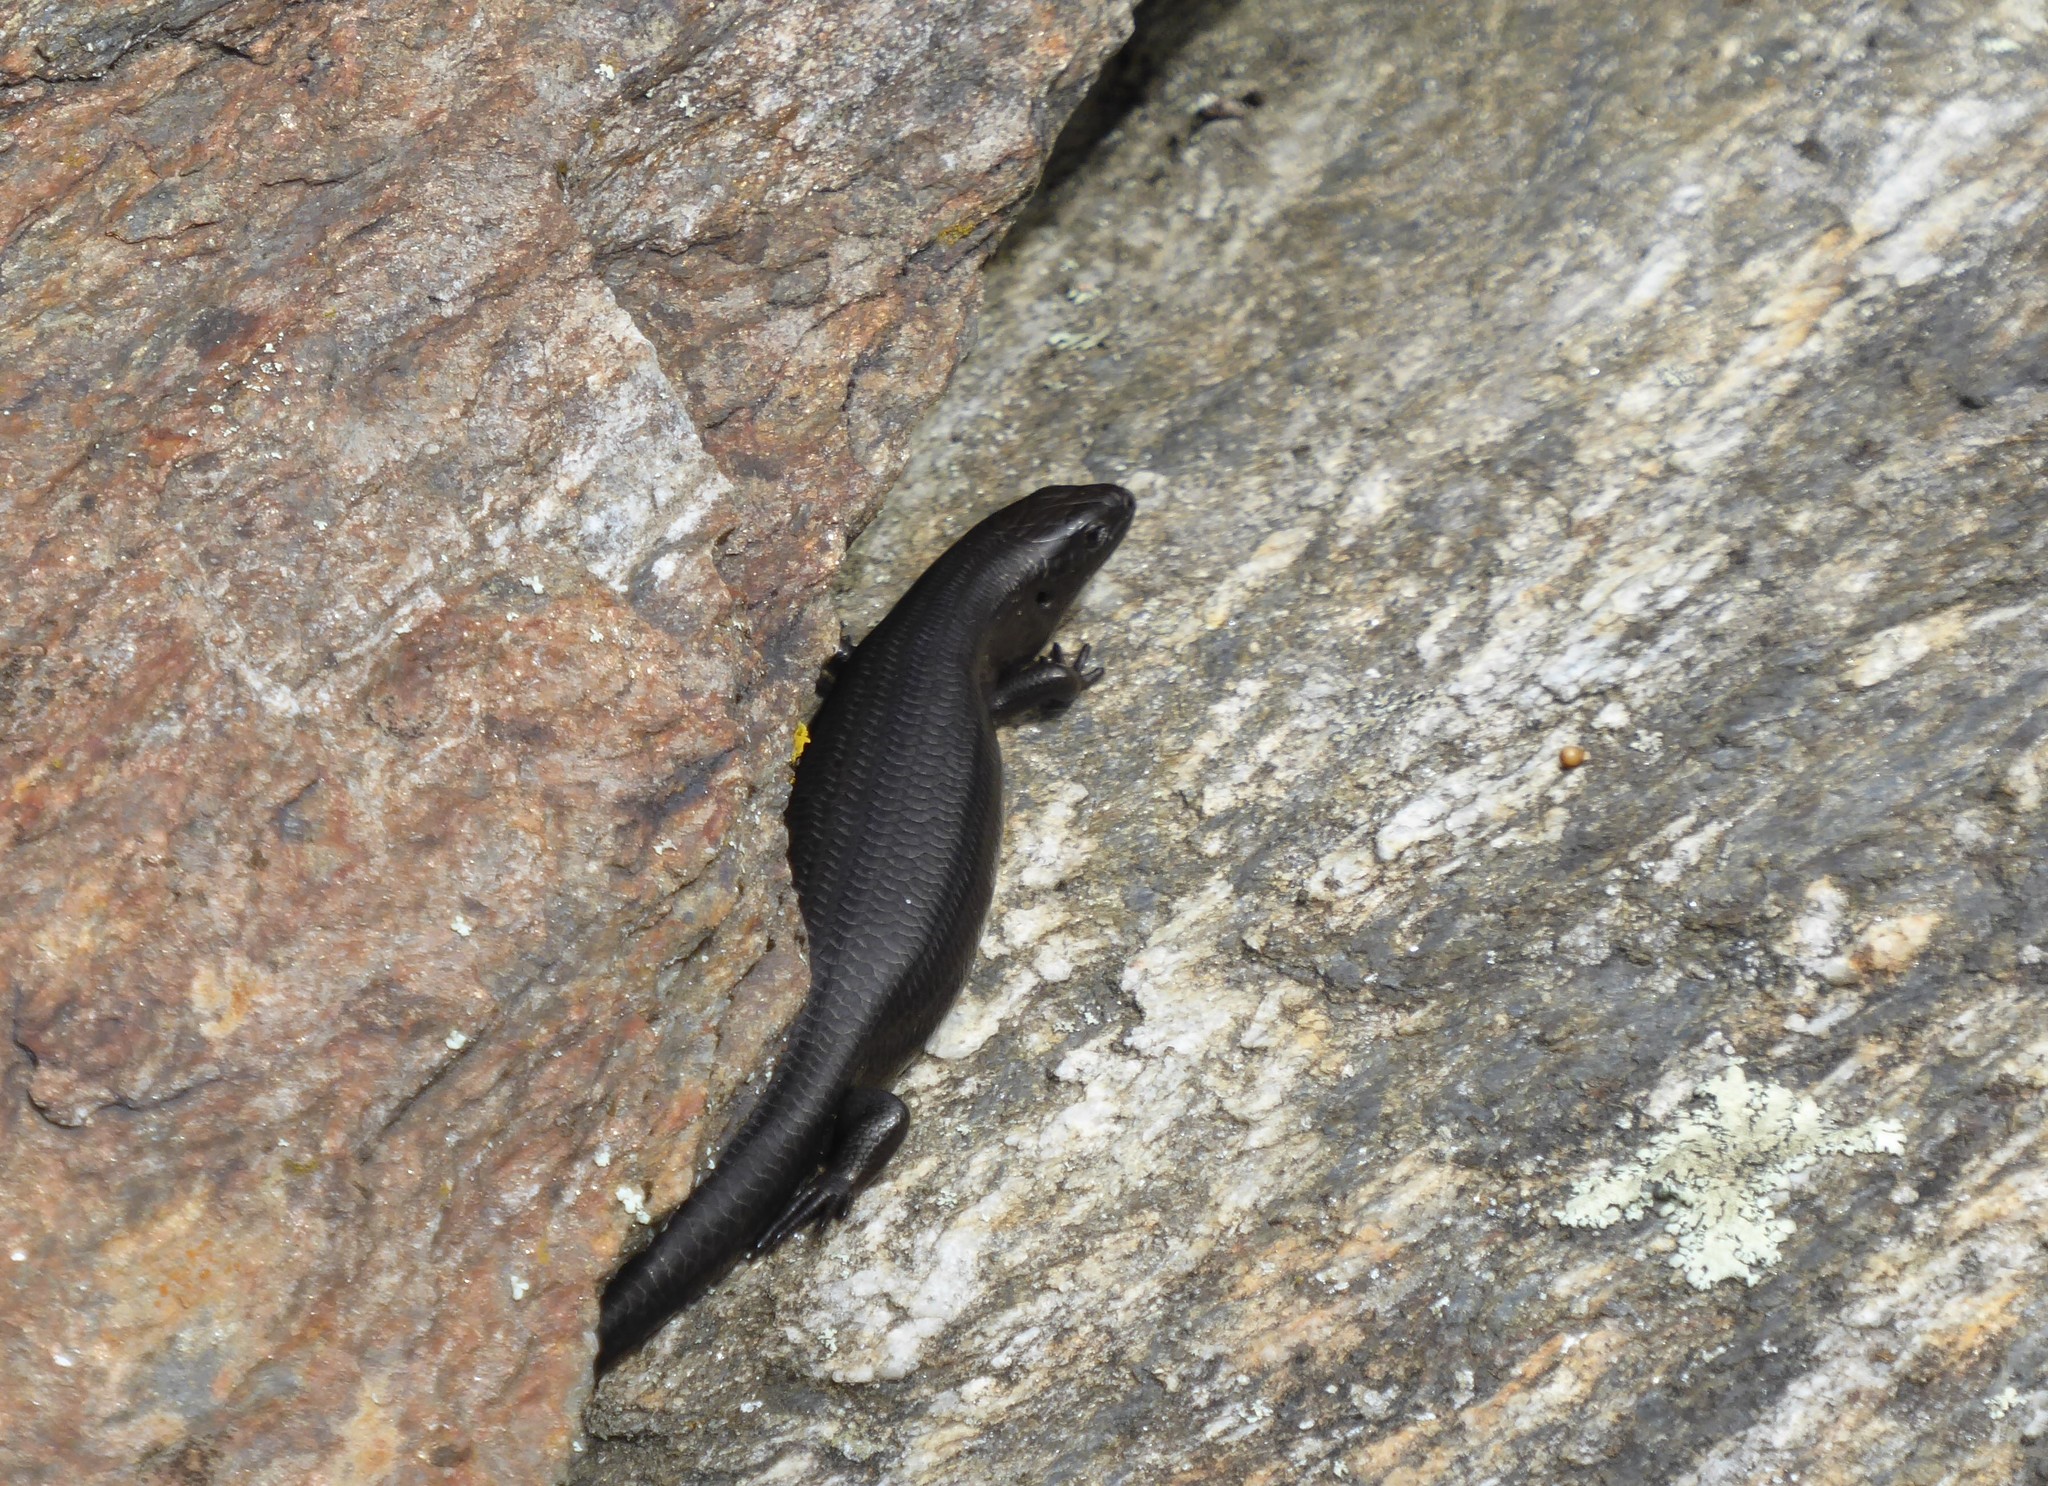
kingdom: Animalia
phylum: Chordata
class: Squamata
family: Scincidae
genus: Oligosoma
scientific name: Oligosoma polychroma
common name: Common new zealand skink
